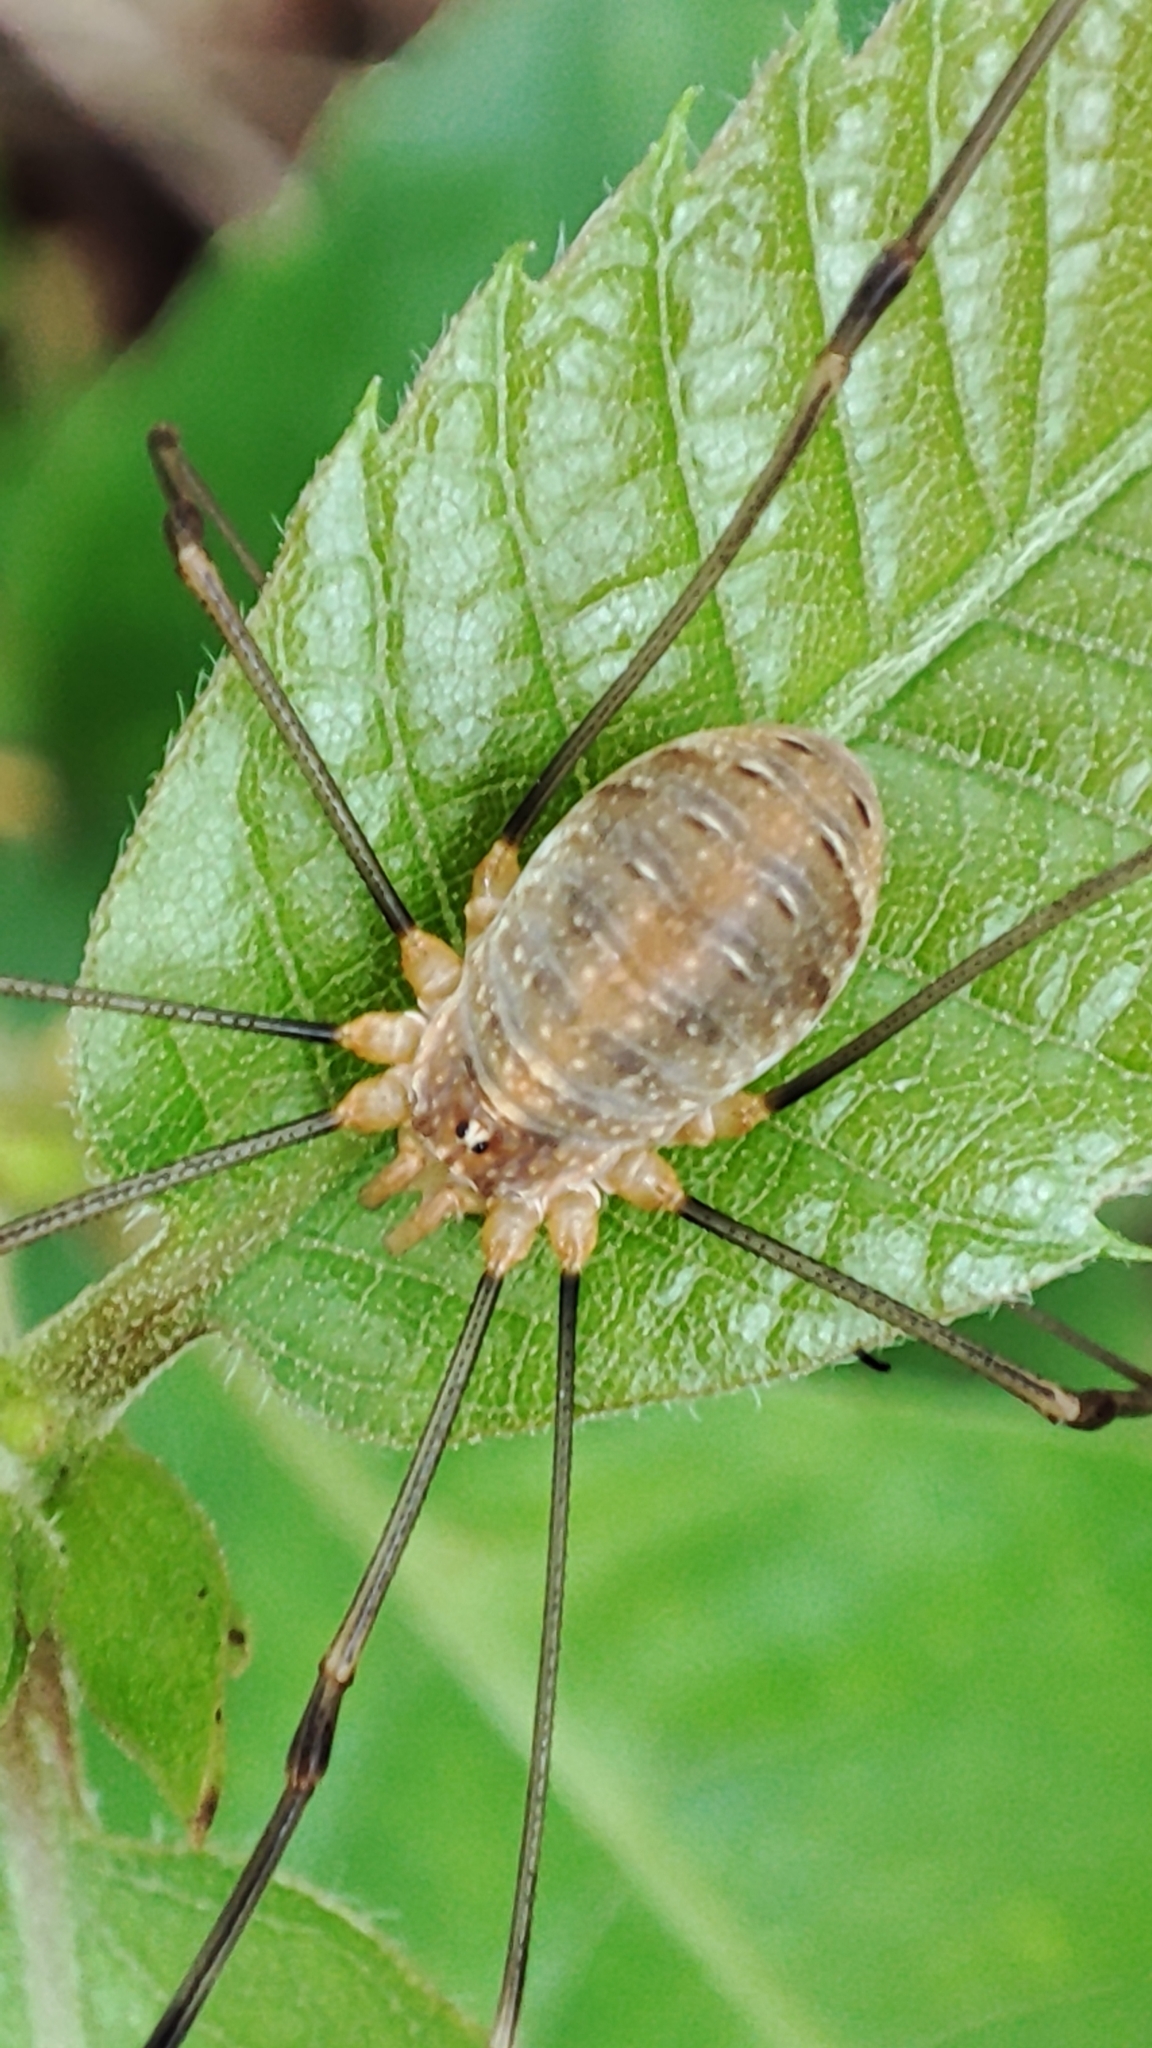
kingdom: Animalia
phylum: Arthropoda
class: Arachnida
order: Opiliones
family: Phalangiidae
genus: Opilio
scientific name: Opilio canestrinii
